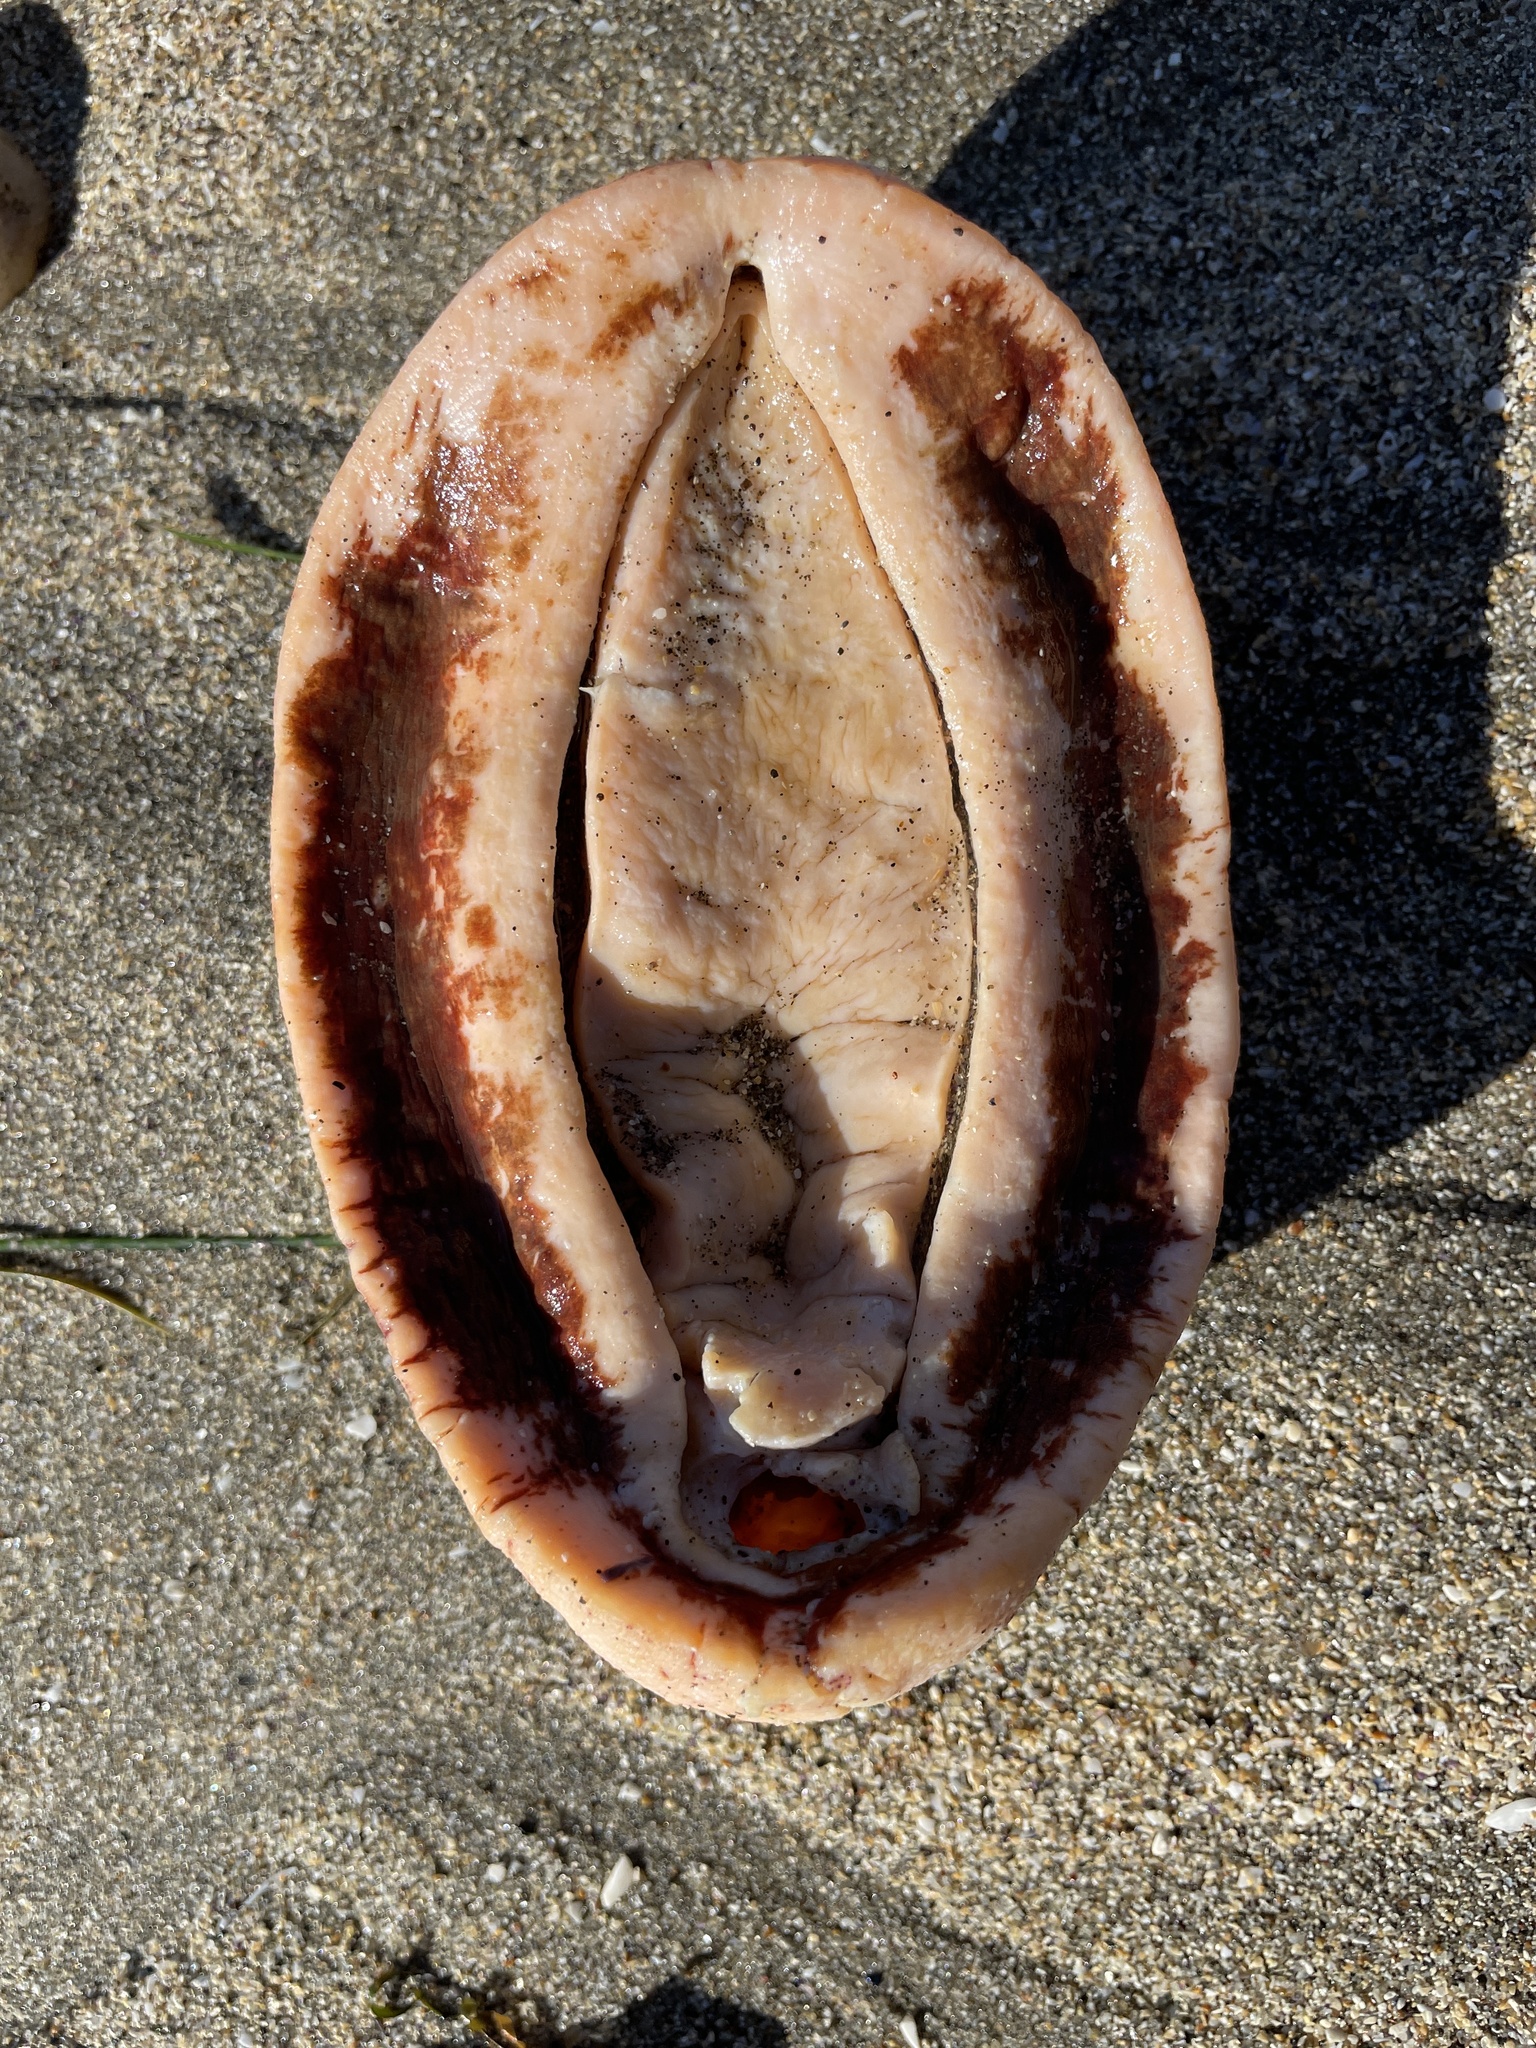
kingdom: Animalia
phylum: Mollusca
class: Polyplacophora
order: Chitonida
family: Acanthochitonidae
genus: Cryptochiton
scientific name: Cryptochiton stelleri
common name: Giant pacific chiton
